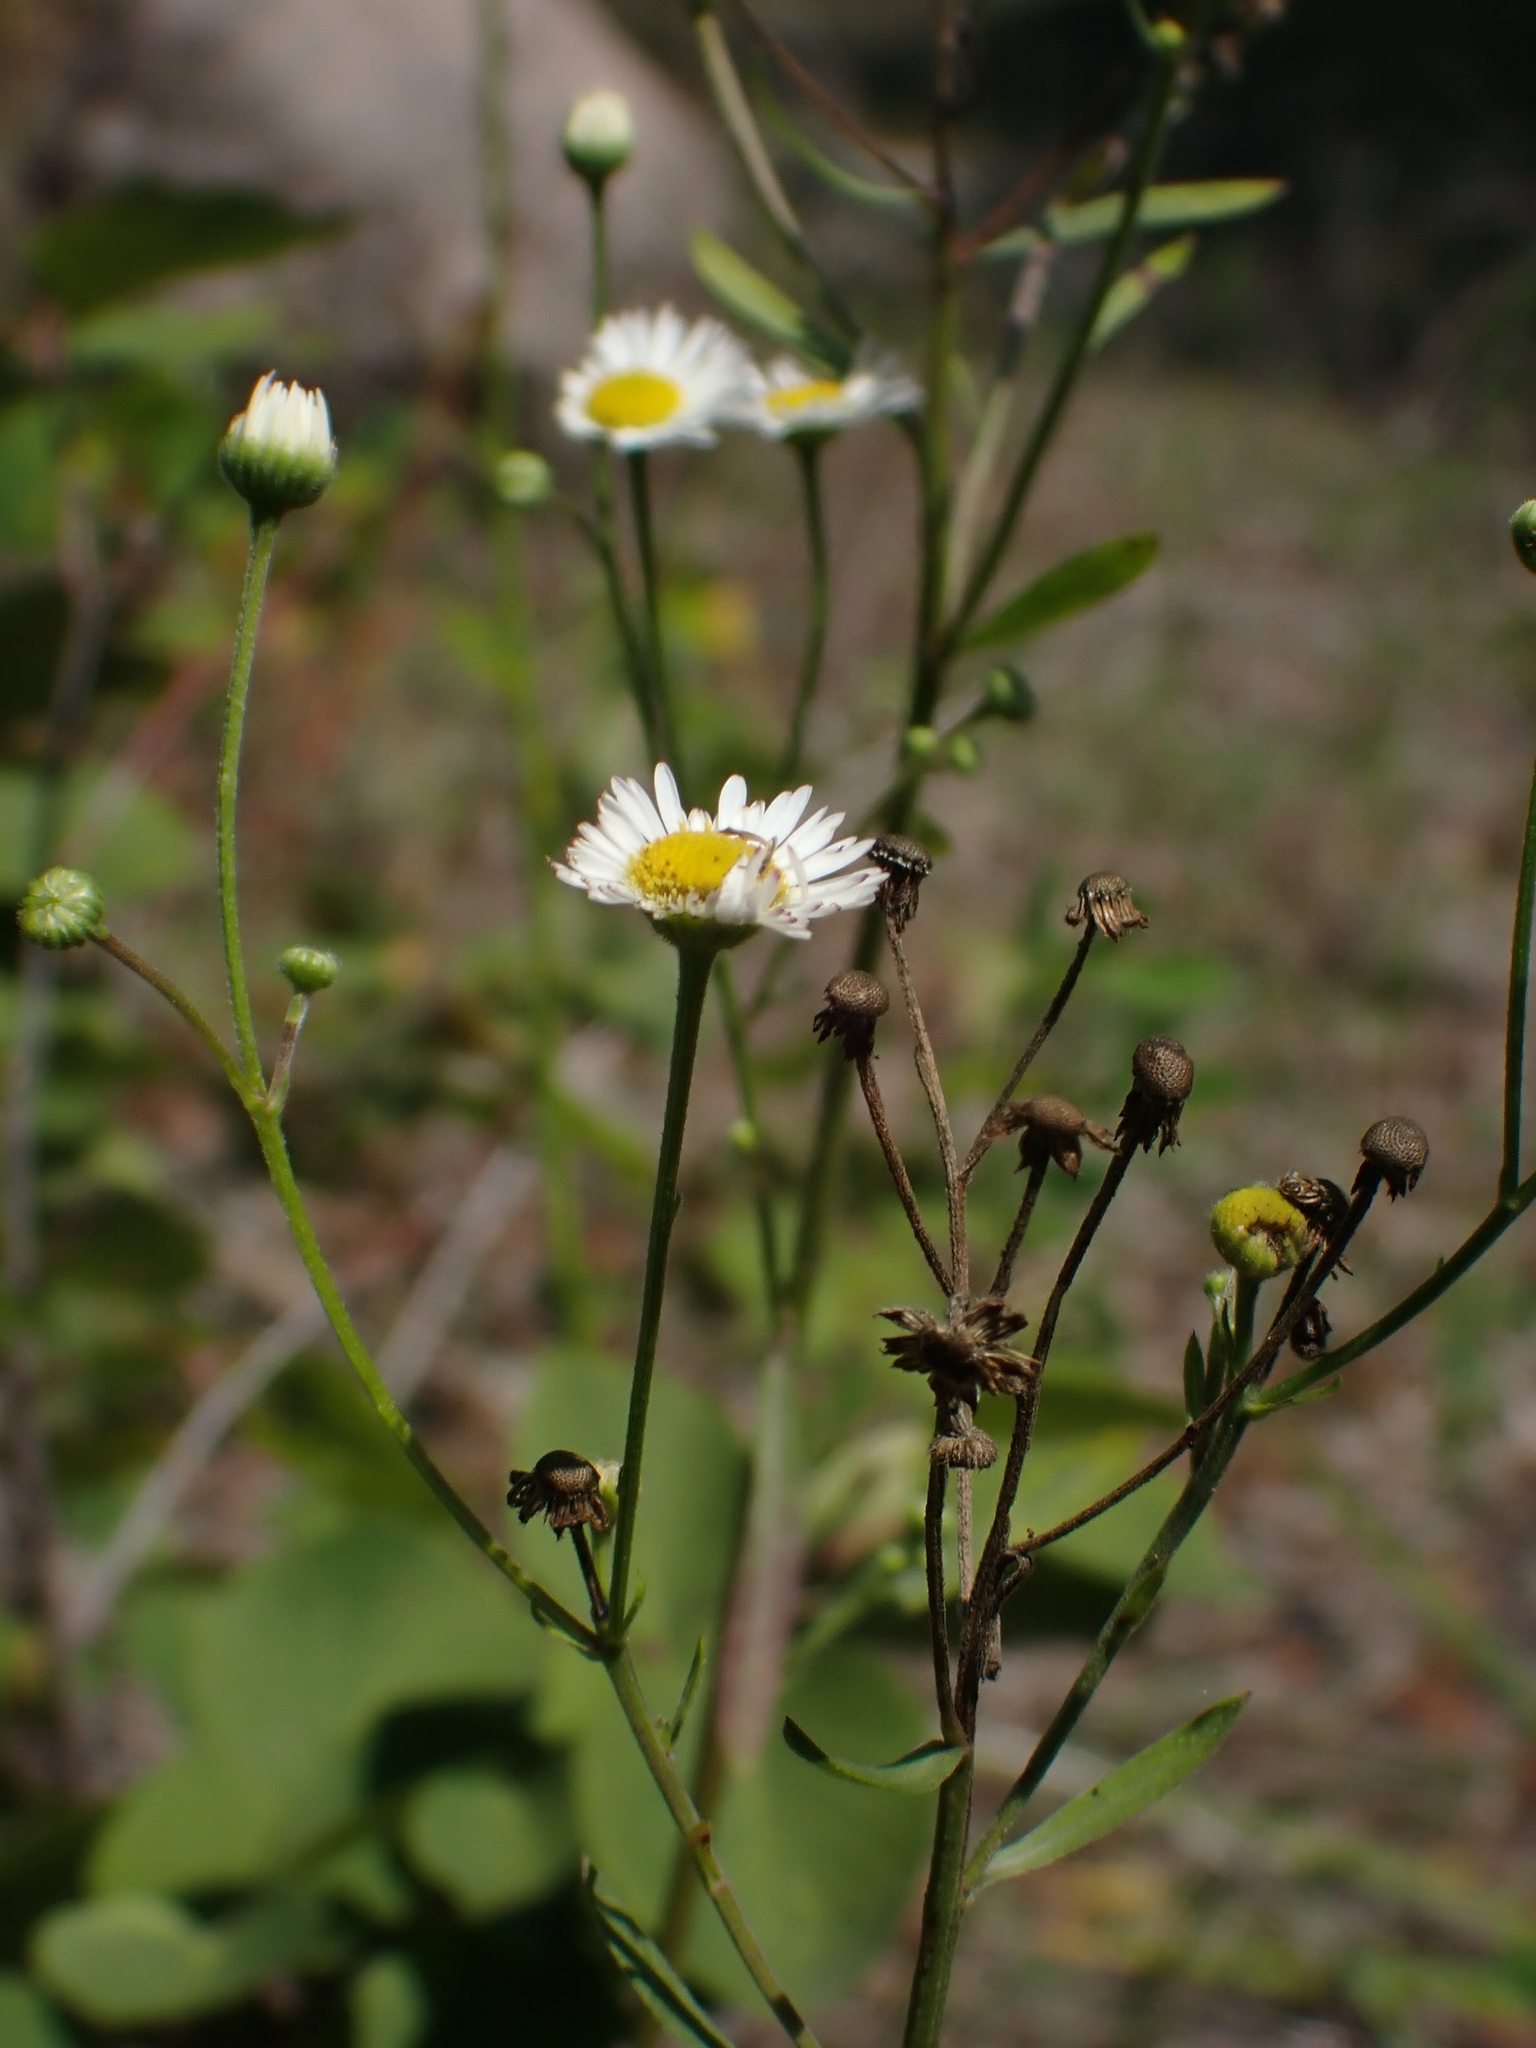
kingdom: Plantae
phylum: Tracheophyta
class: Magnoliopsida
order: Asterales
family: Asteraceae
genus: Erigeron
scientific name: Erigeron strigosus
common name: Common eastern fleabane
